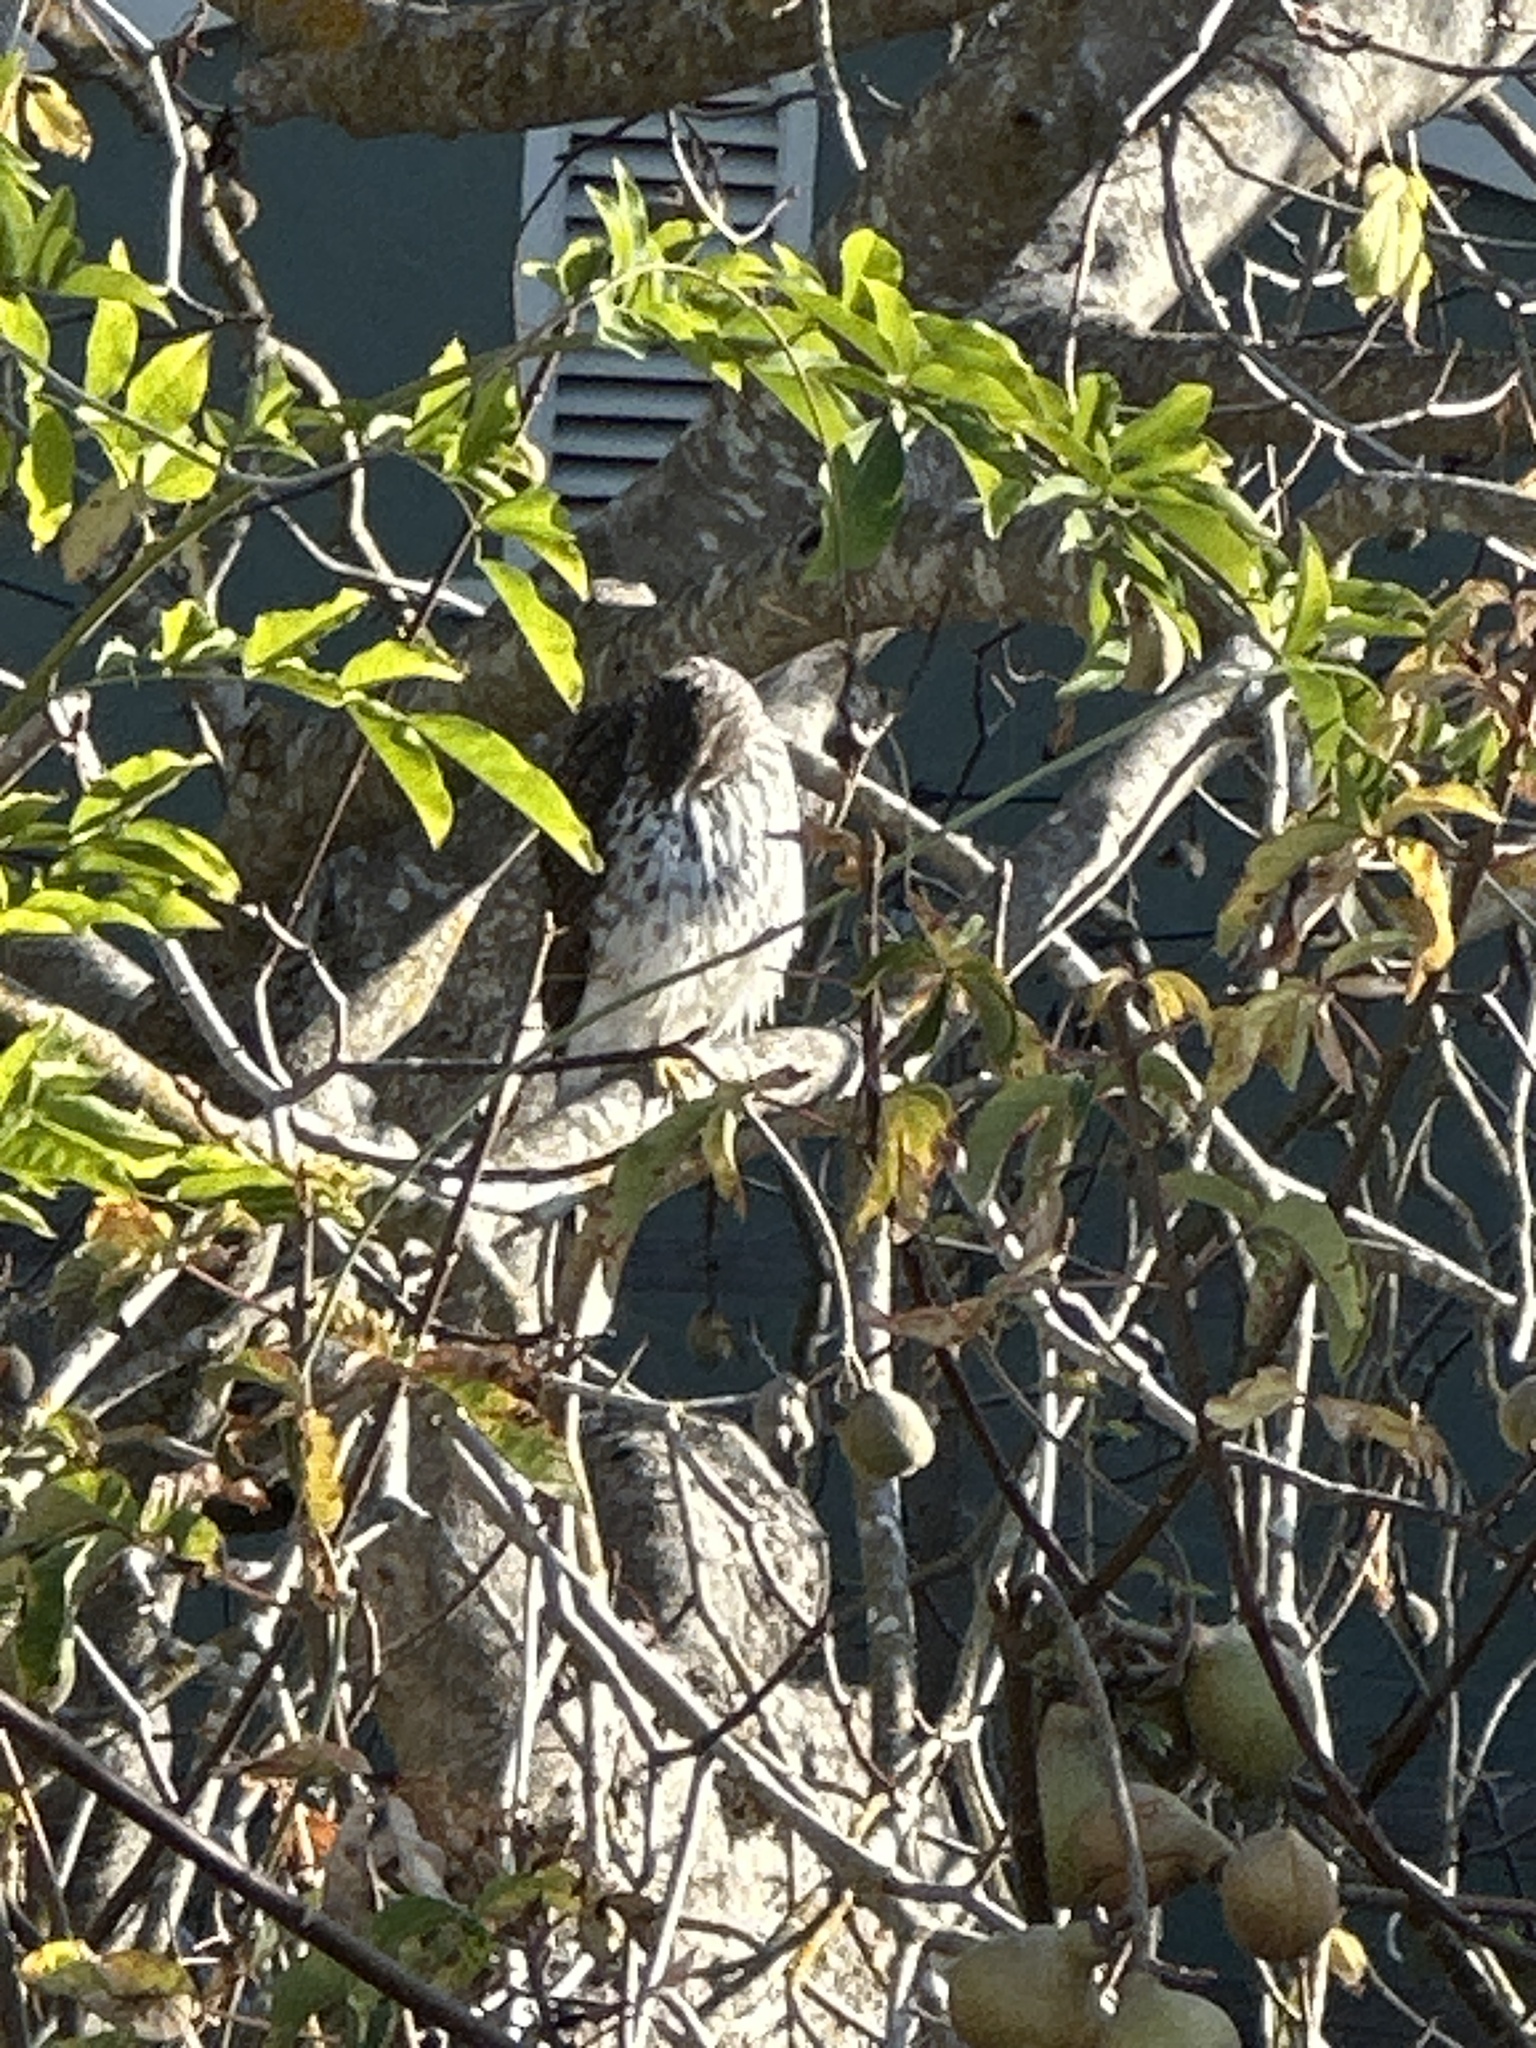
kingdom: Animalia
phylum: Chordata
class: Aves
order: Accipitriformes
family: Accipitridae
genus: Accipiter
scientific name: Accipiter cooperii
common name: Cooper's hawk
